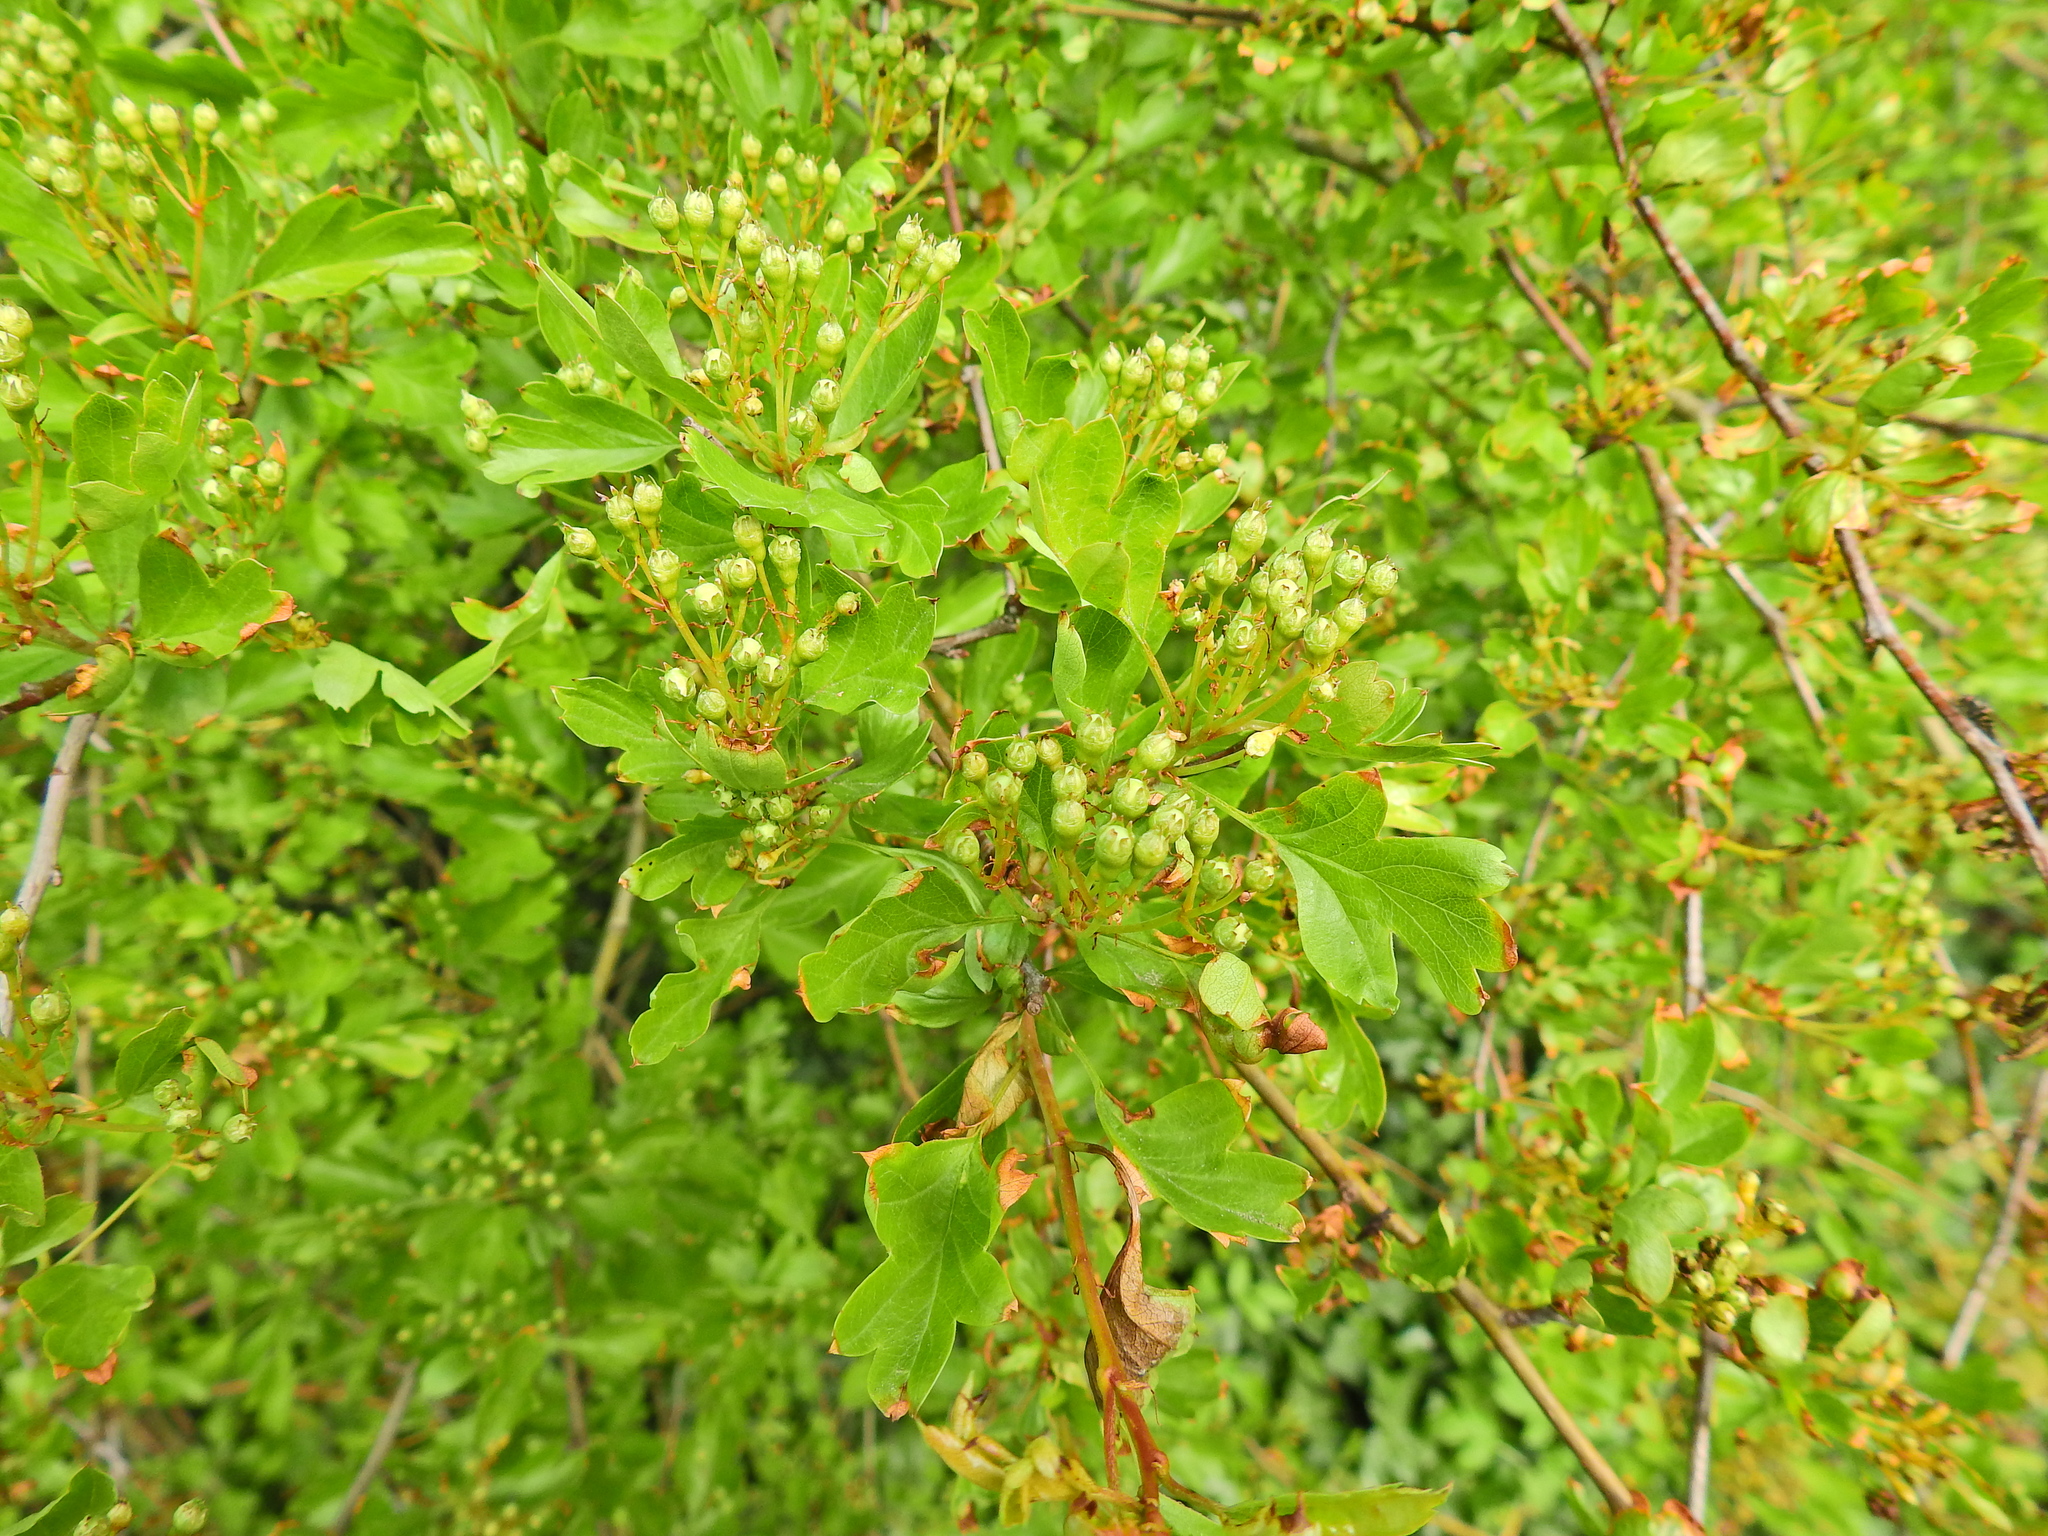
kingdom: Plantae
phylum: Tracheophyta
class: Magnoliopsida
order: Rosales
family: Rosaceae
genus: Crataegus
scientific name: Crataegus monogyna
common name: Hawthorn
